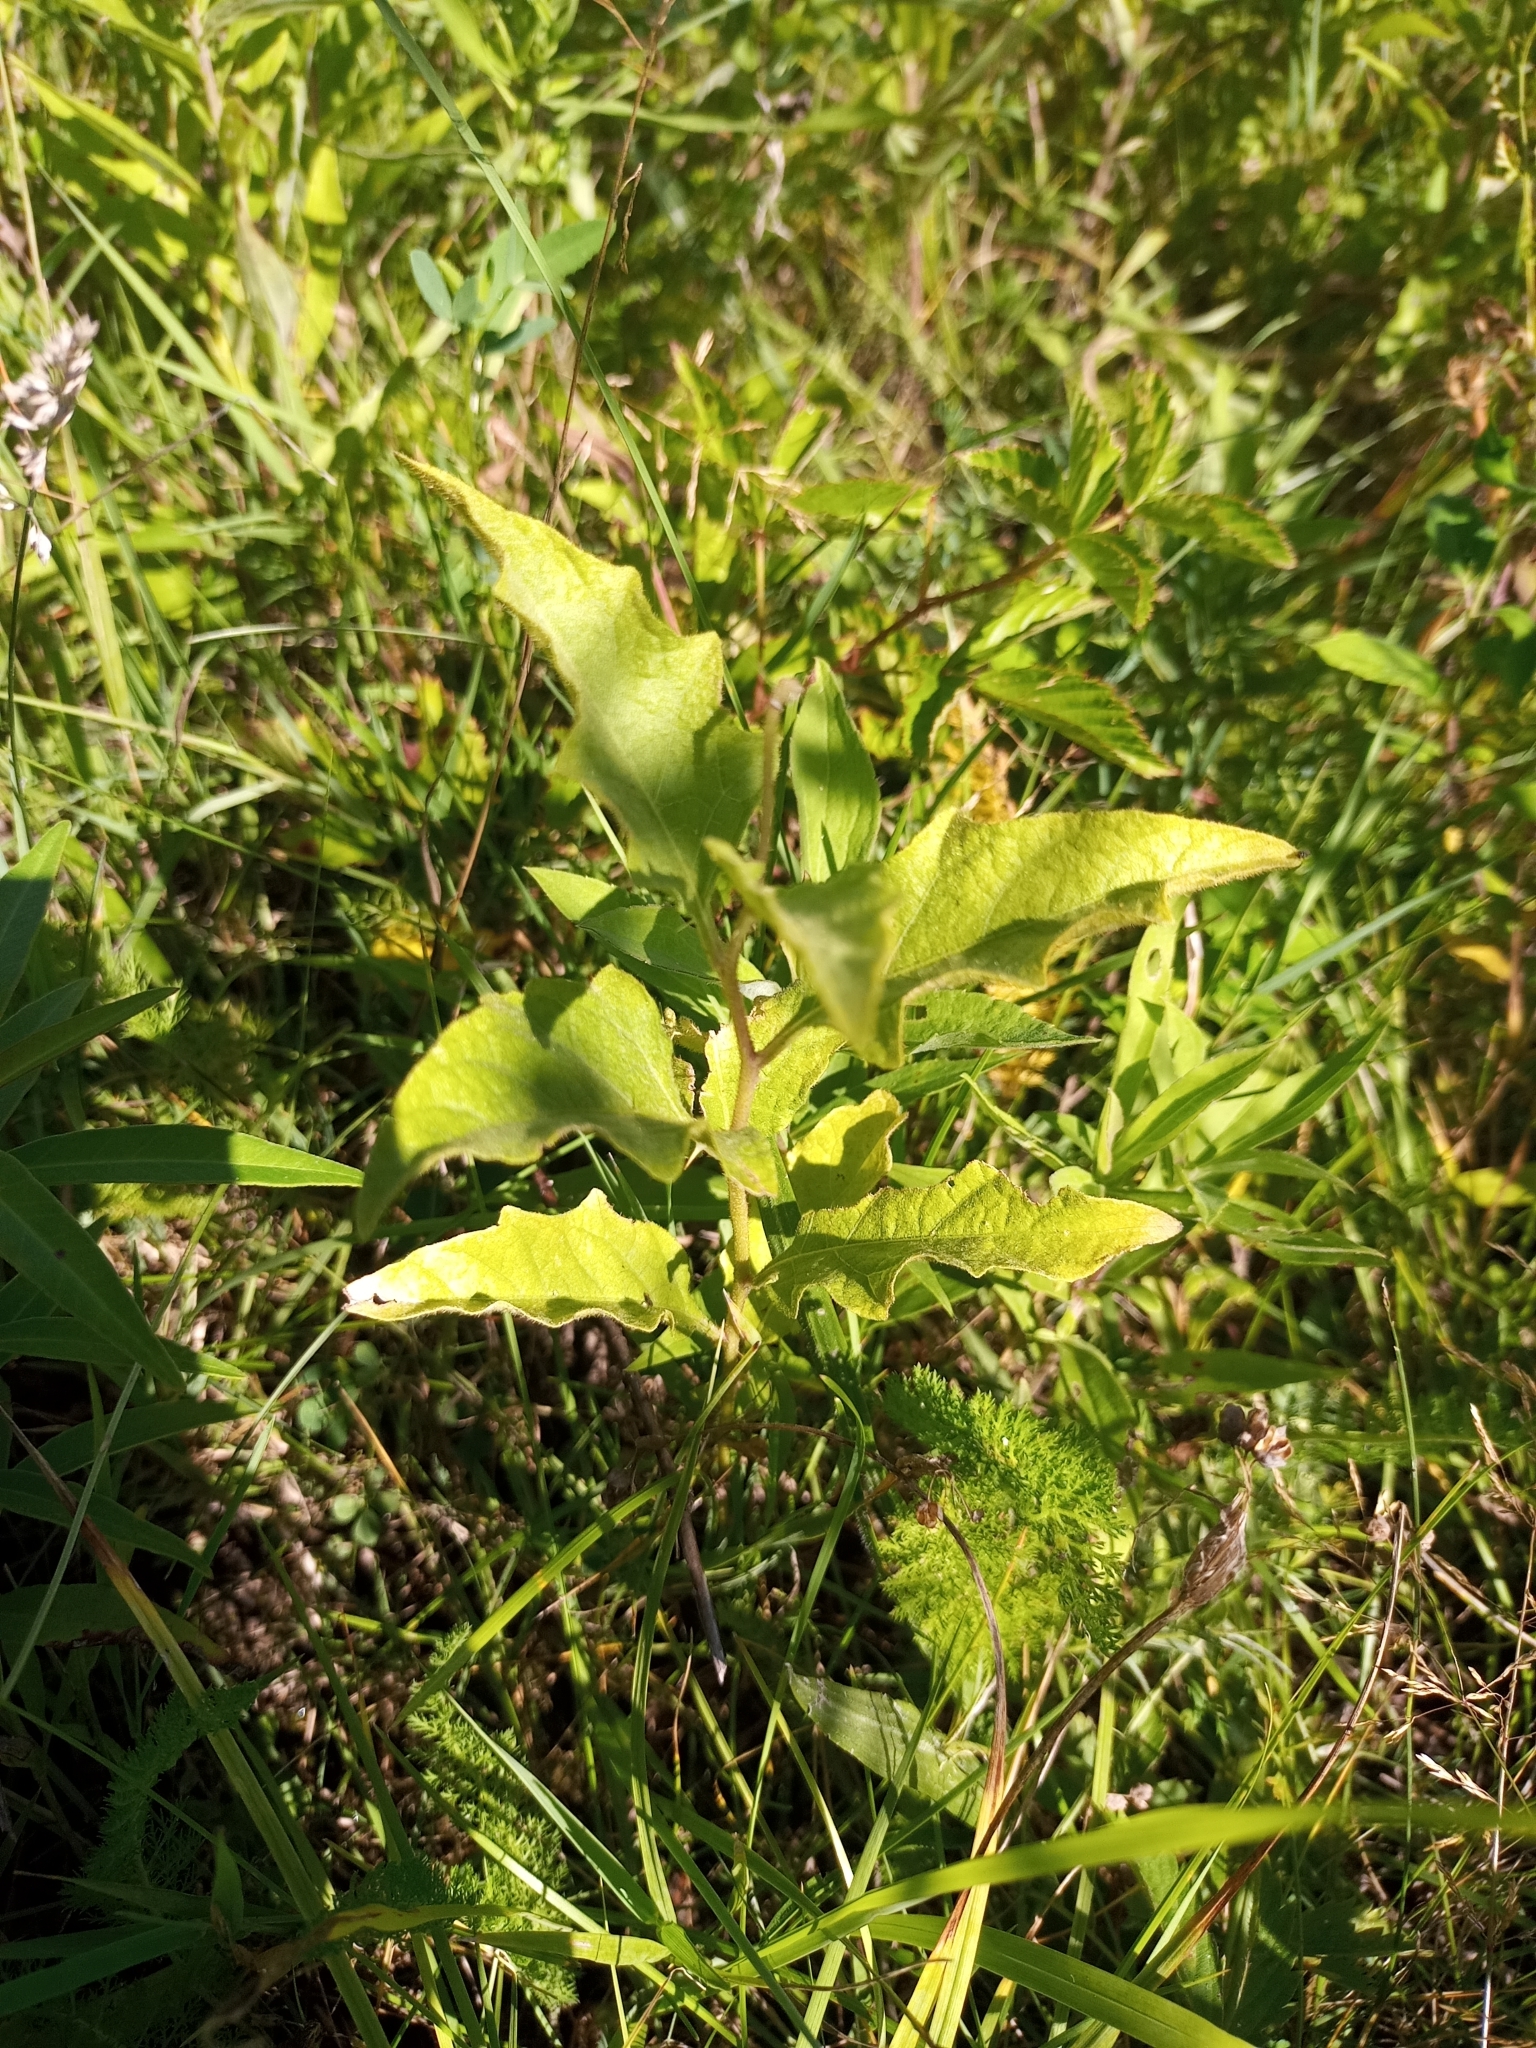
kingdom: Plantae
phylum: Tracheophyta
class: Magnoliopsida
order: Solanales
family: Solanaceae
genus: Solanum
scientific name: Solanum carolinense
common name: Horse-nettle
